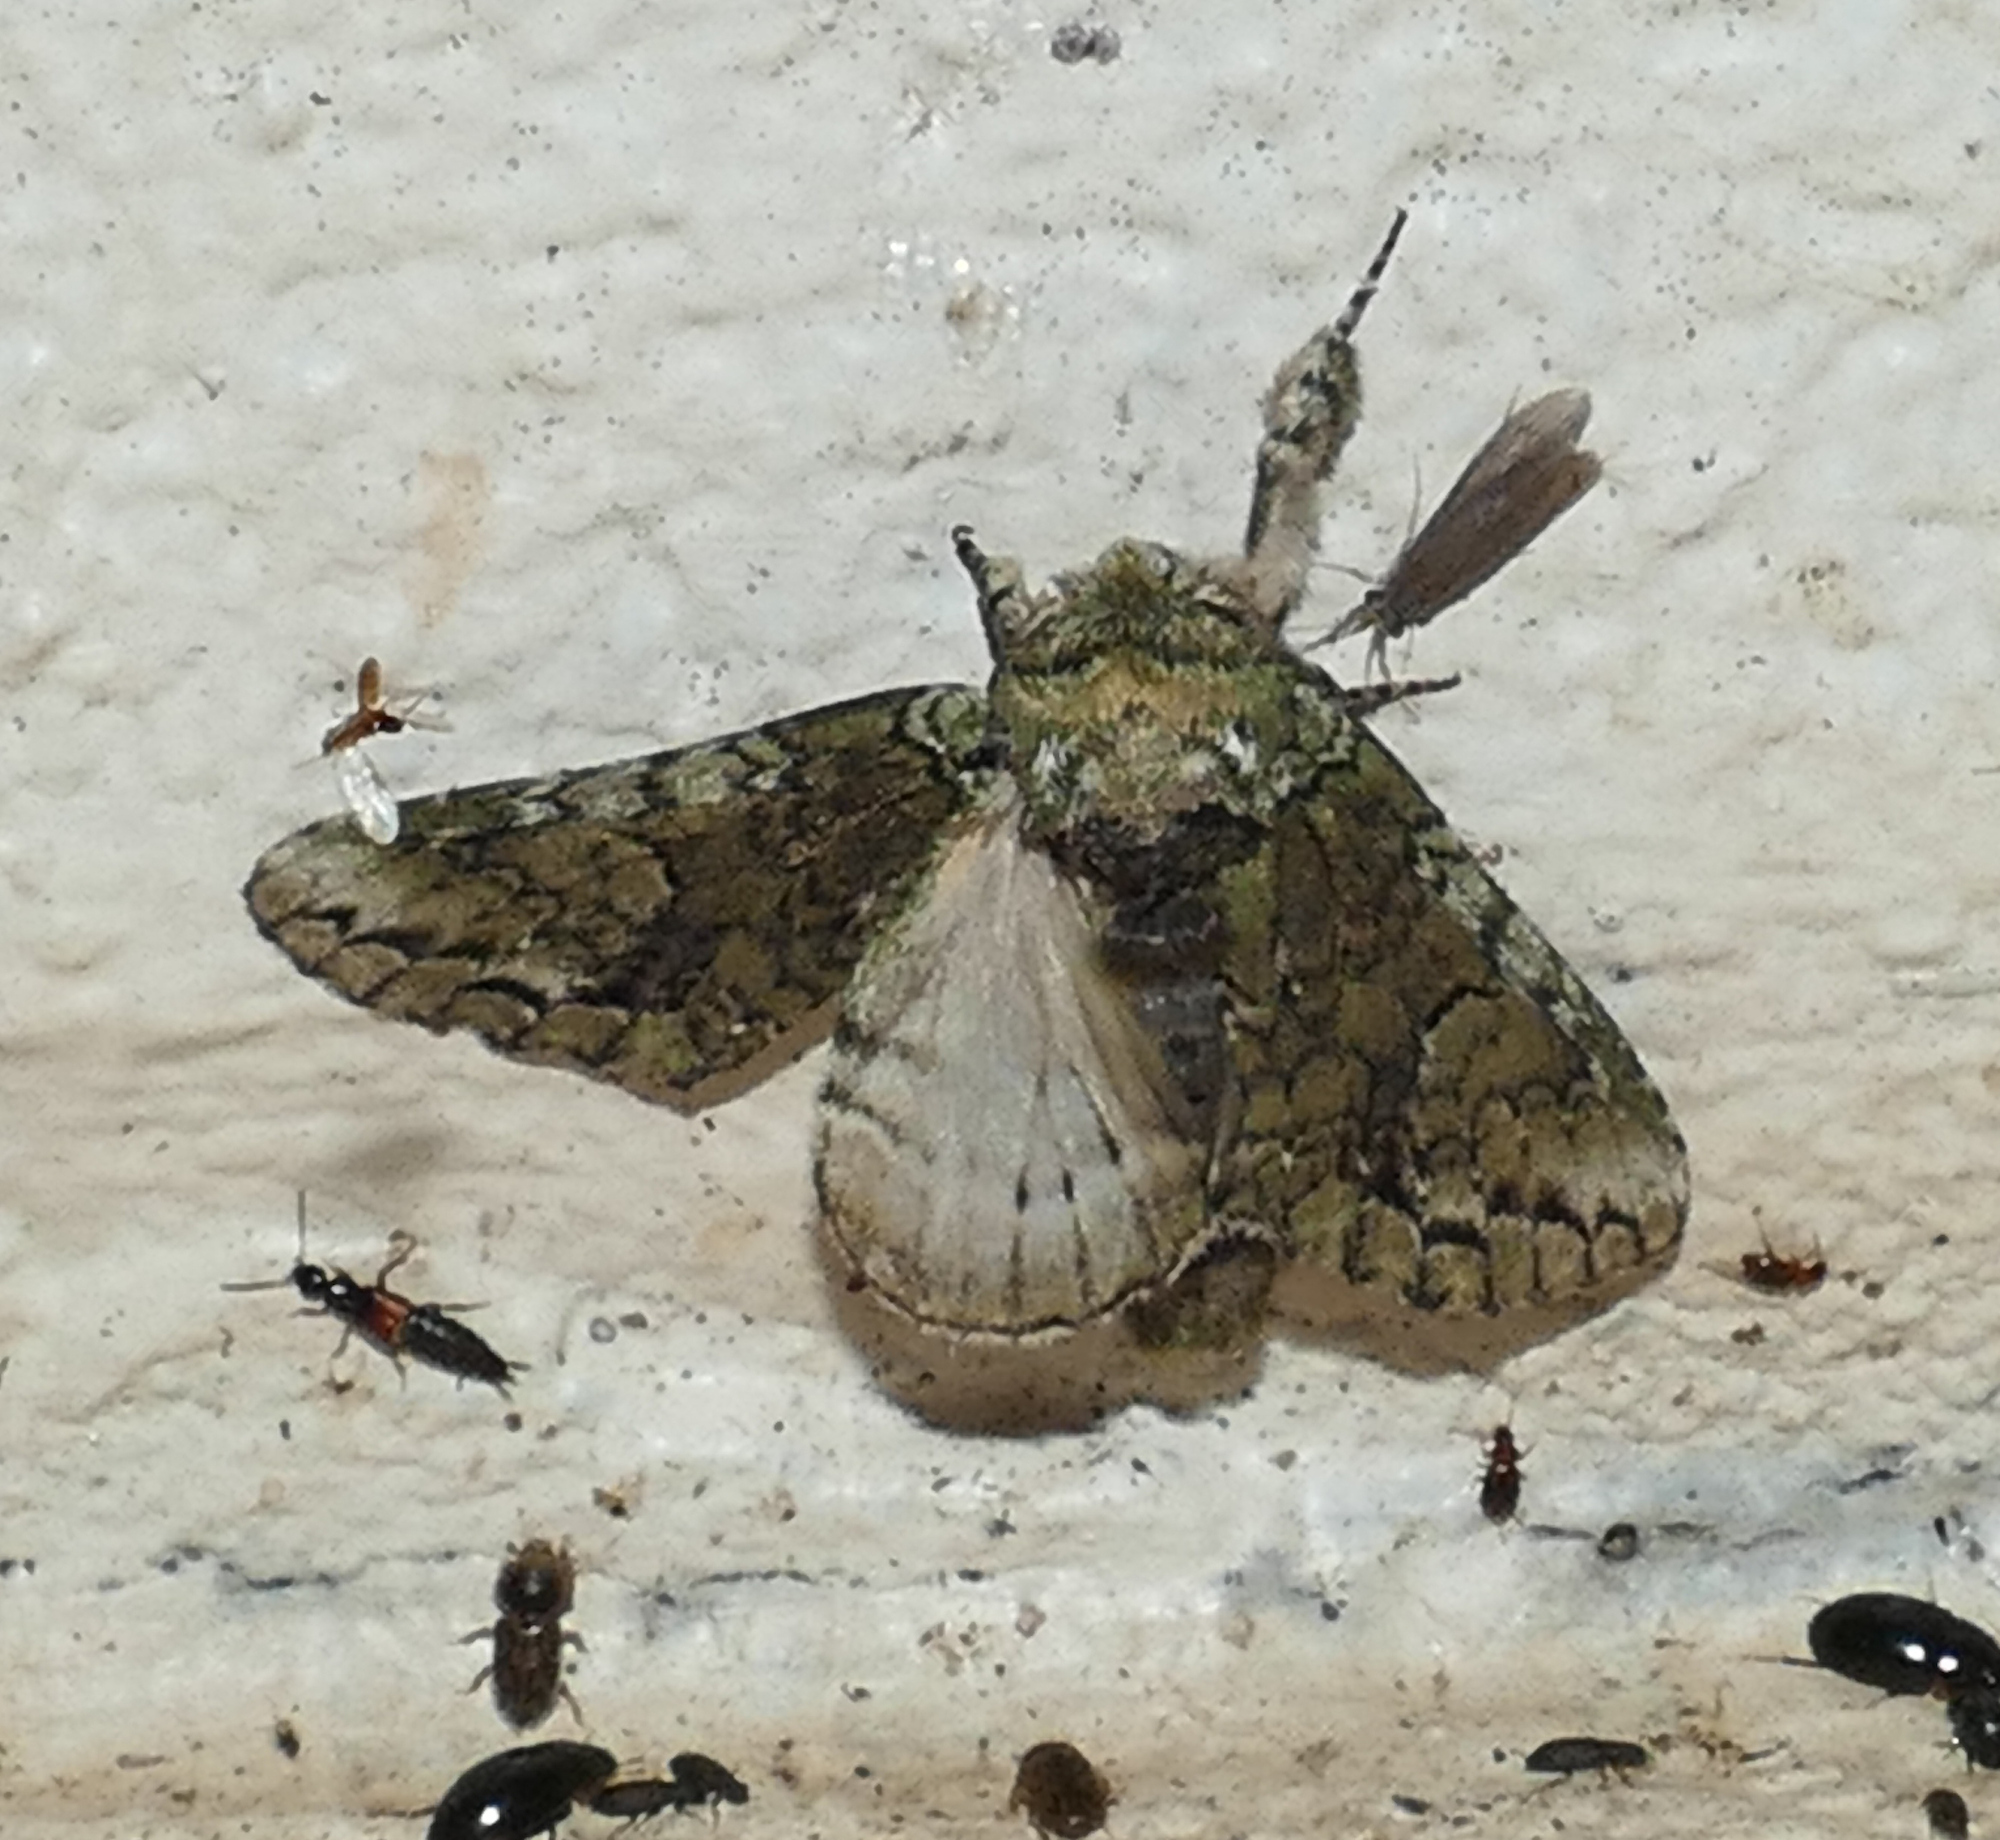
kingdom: Animalia
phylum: Arthropoda
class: Insecta
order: Lepidoptera
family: Notodontidae
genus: Heterocampa
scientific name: Heterocampa
